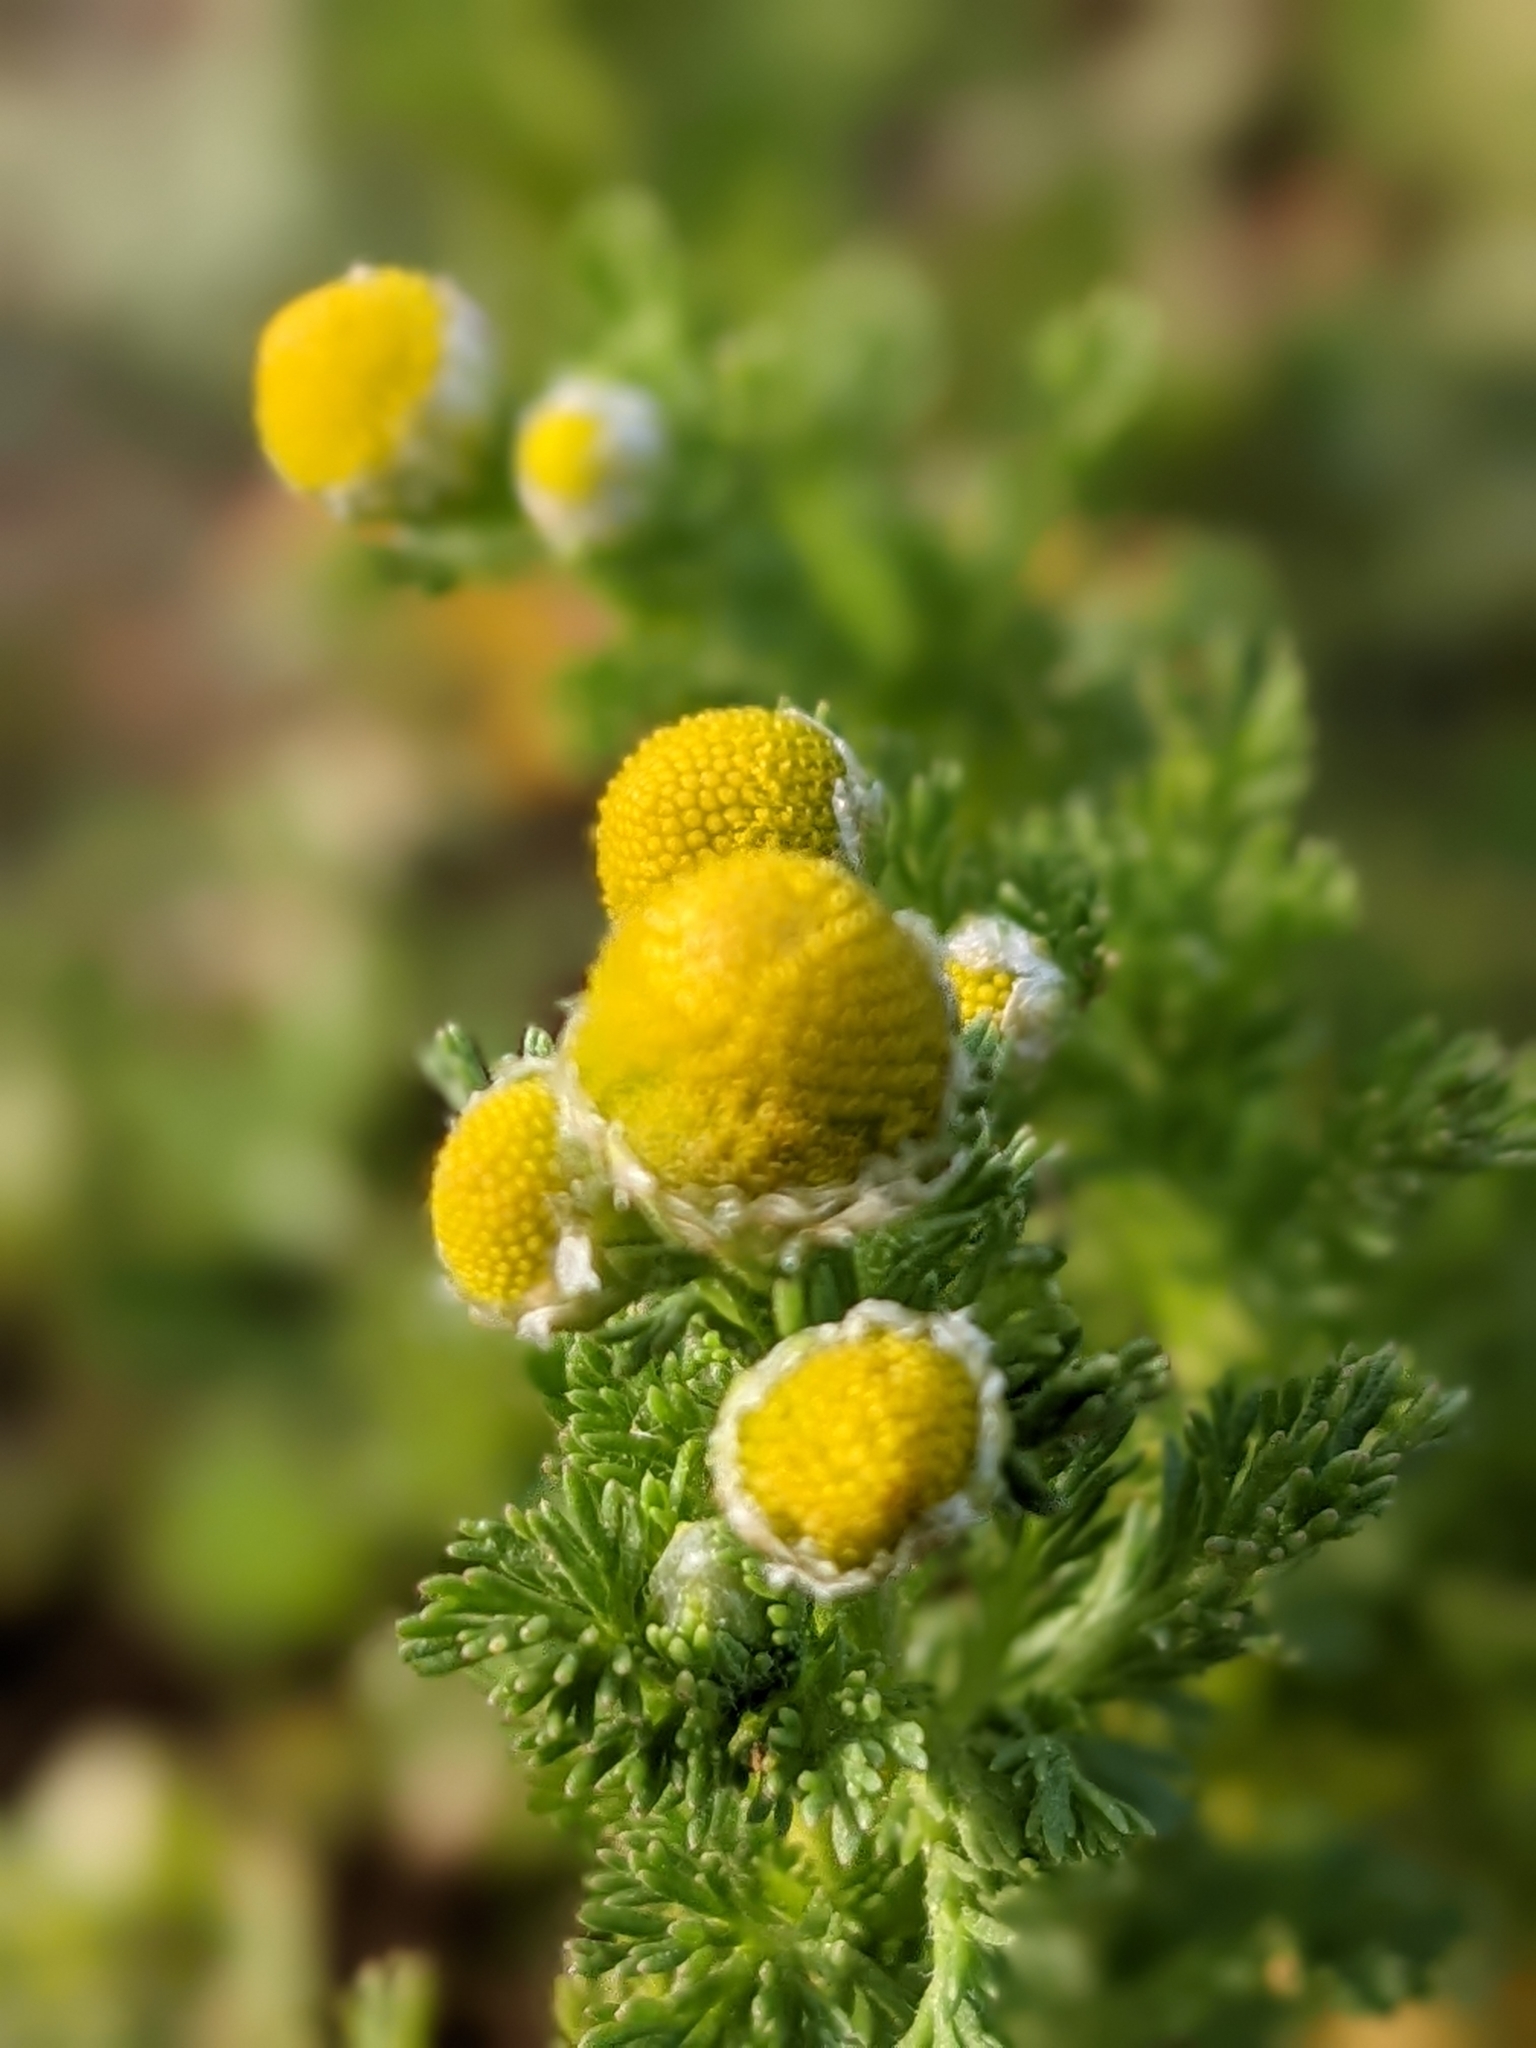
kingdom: Plantae
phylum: Tracheophyta
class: Magnoliopsida
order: Asterales
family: Asteraceae
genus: Matricaria
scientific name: Matricaria discoidea
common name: Disc mayweed
